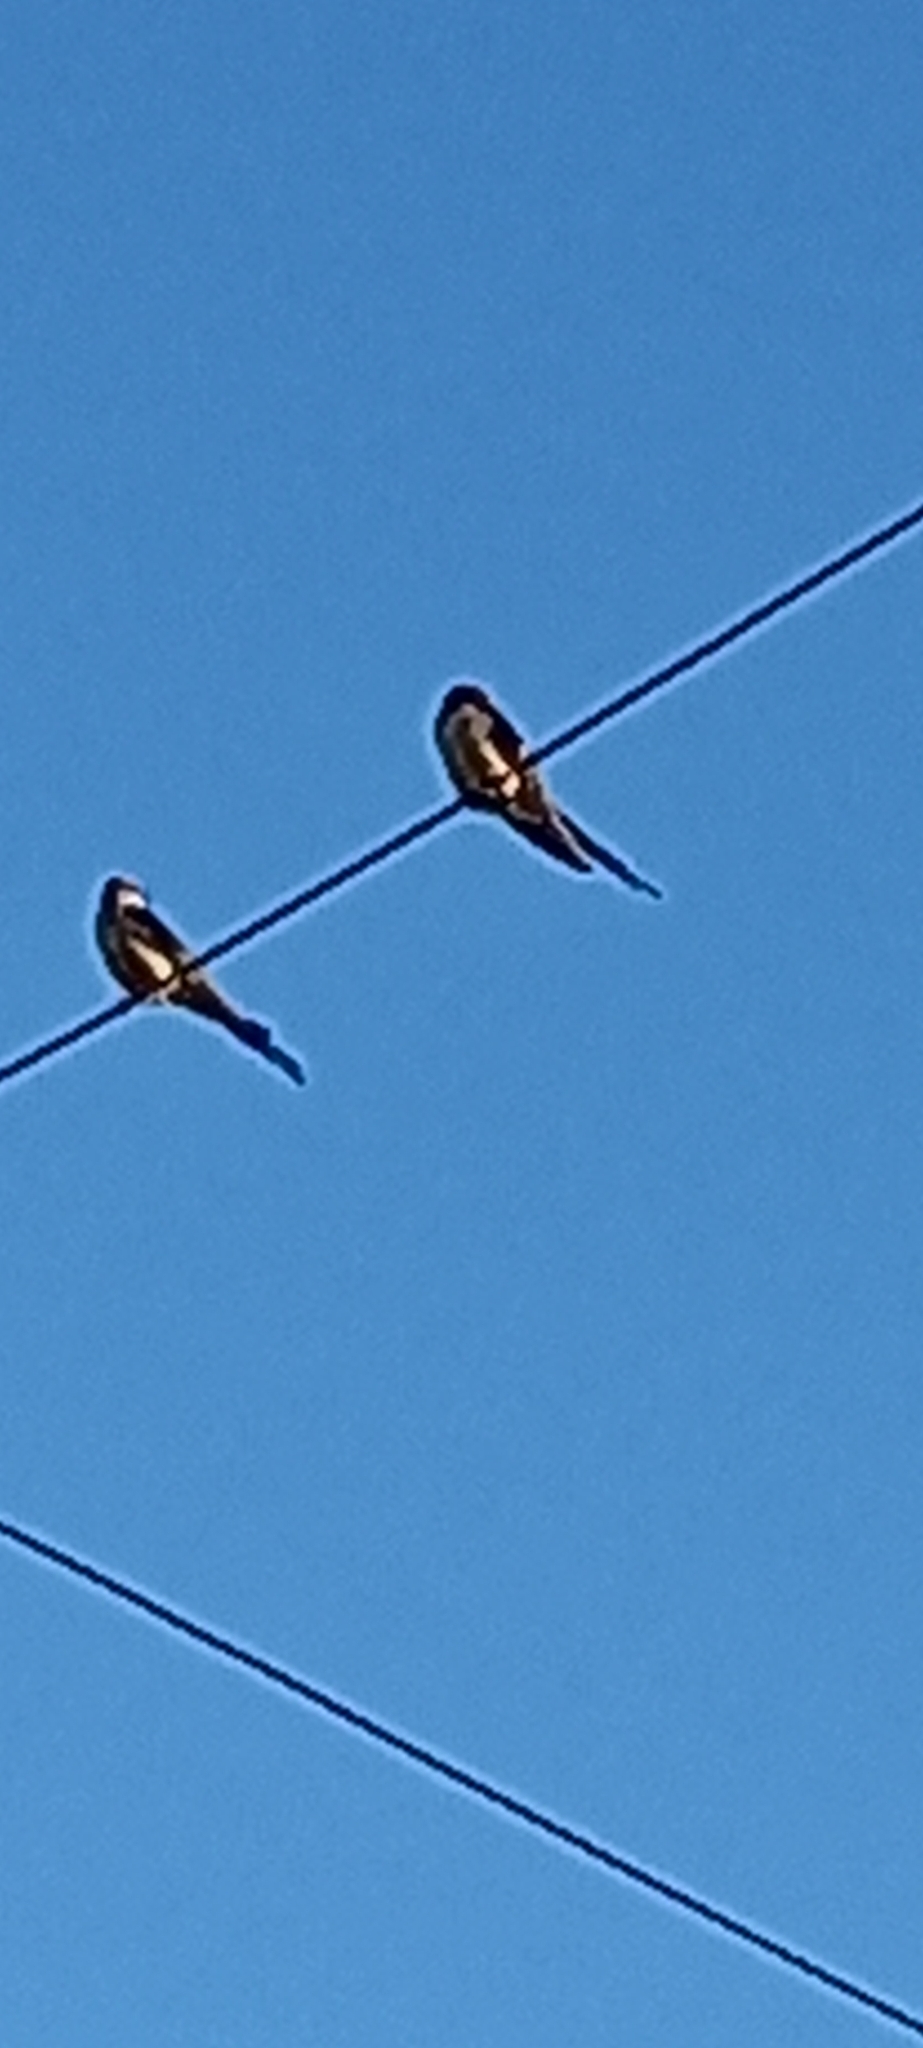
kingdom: Animalia
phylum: Chordata
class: Aves
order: Passeriformes
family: Hirundinidae
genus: Cecropis
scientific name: Cecropis cucullata
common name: Greater striped-swallow
